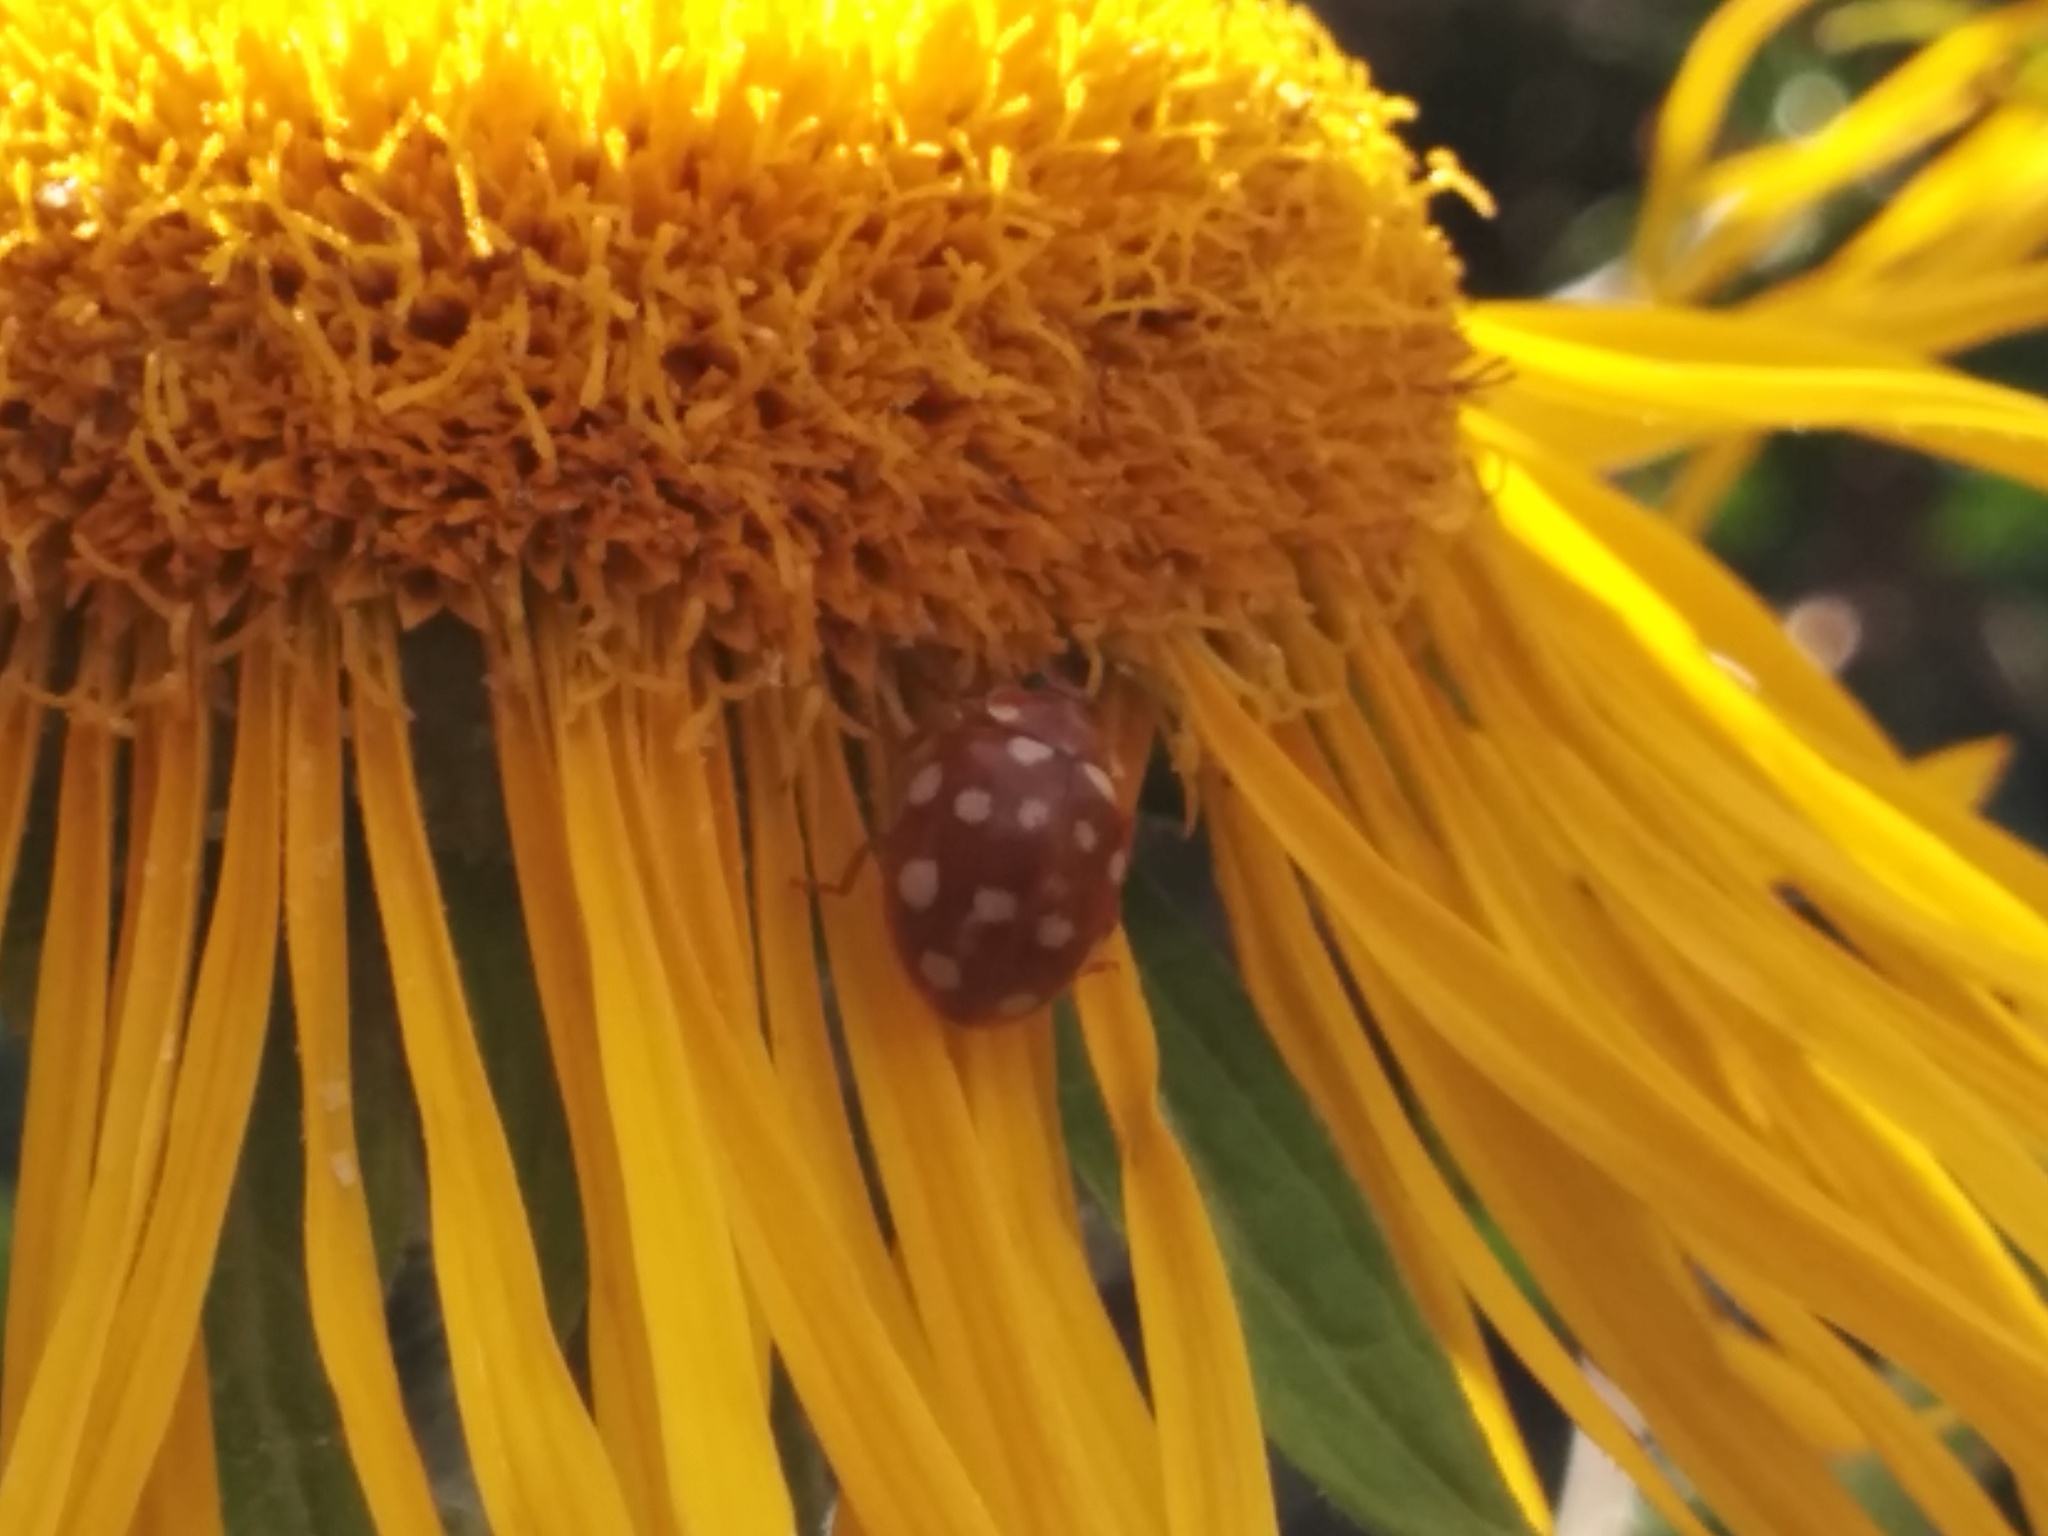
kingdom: Animalia
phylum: Arthropoda
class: Insecta
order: Coleoptera
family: Coccinellidae
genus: Calvia
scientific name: Calvia quatuordecimguttata
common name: Cream-spot ladybird
